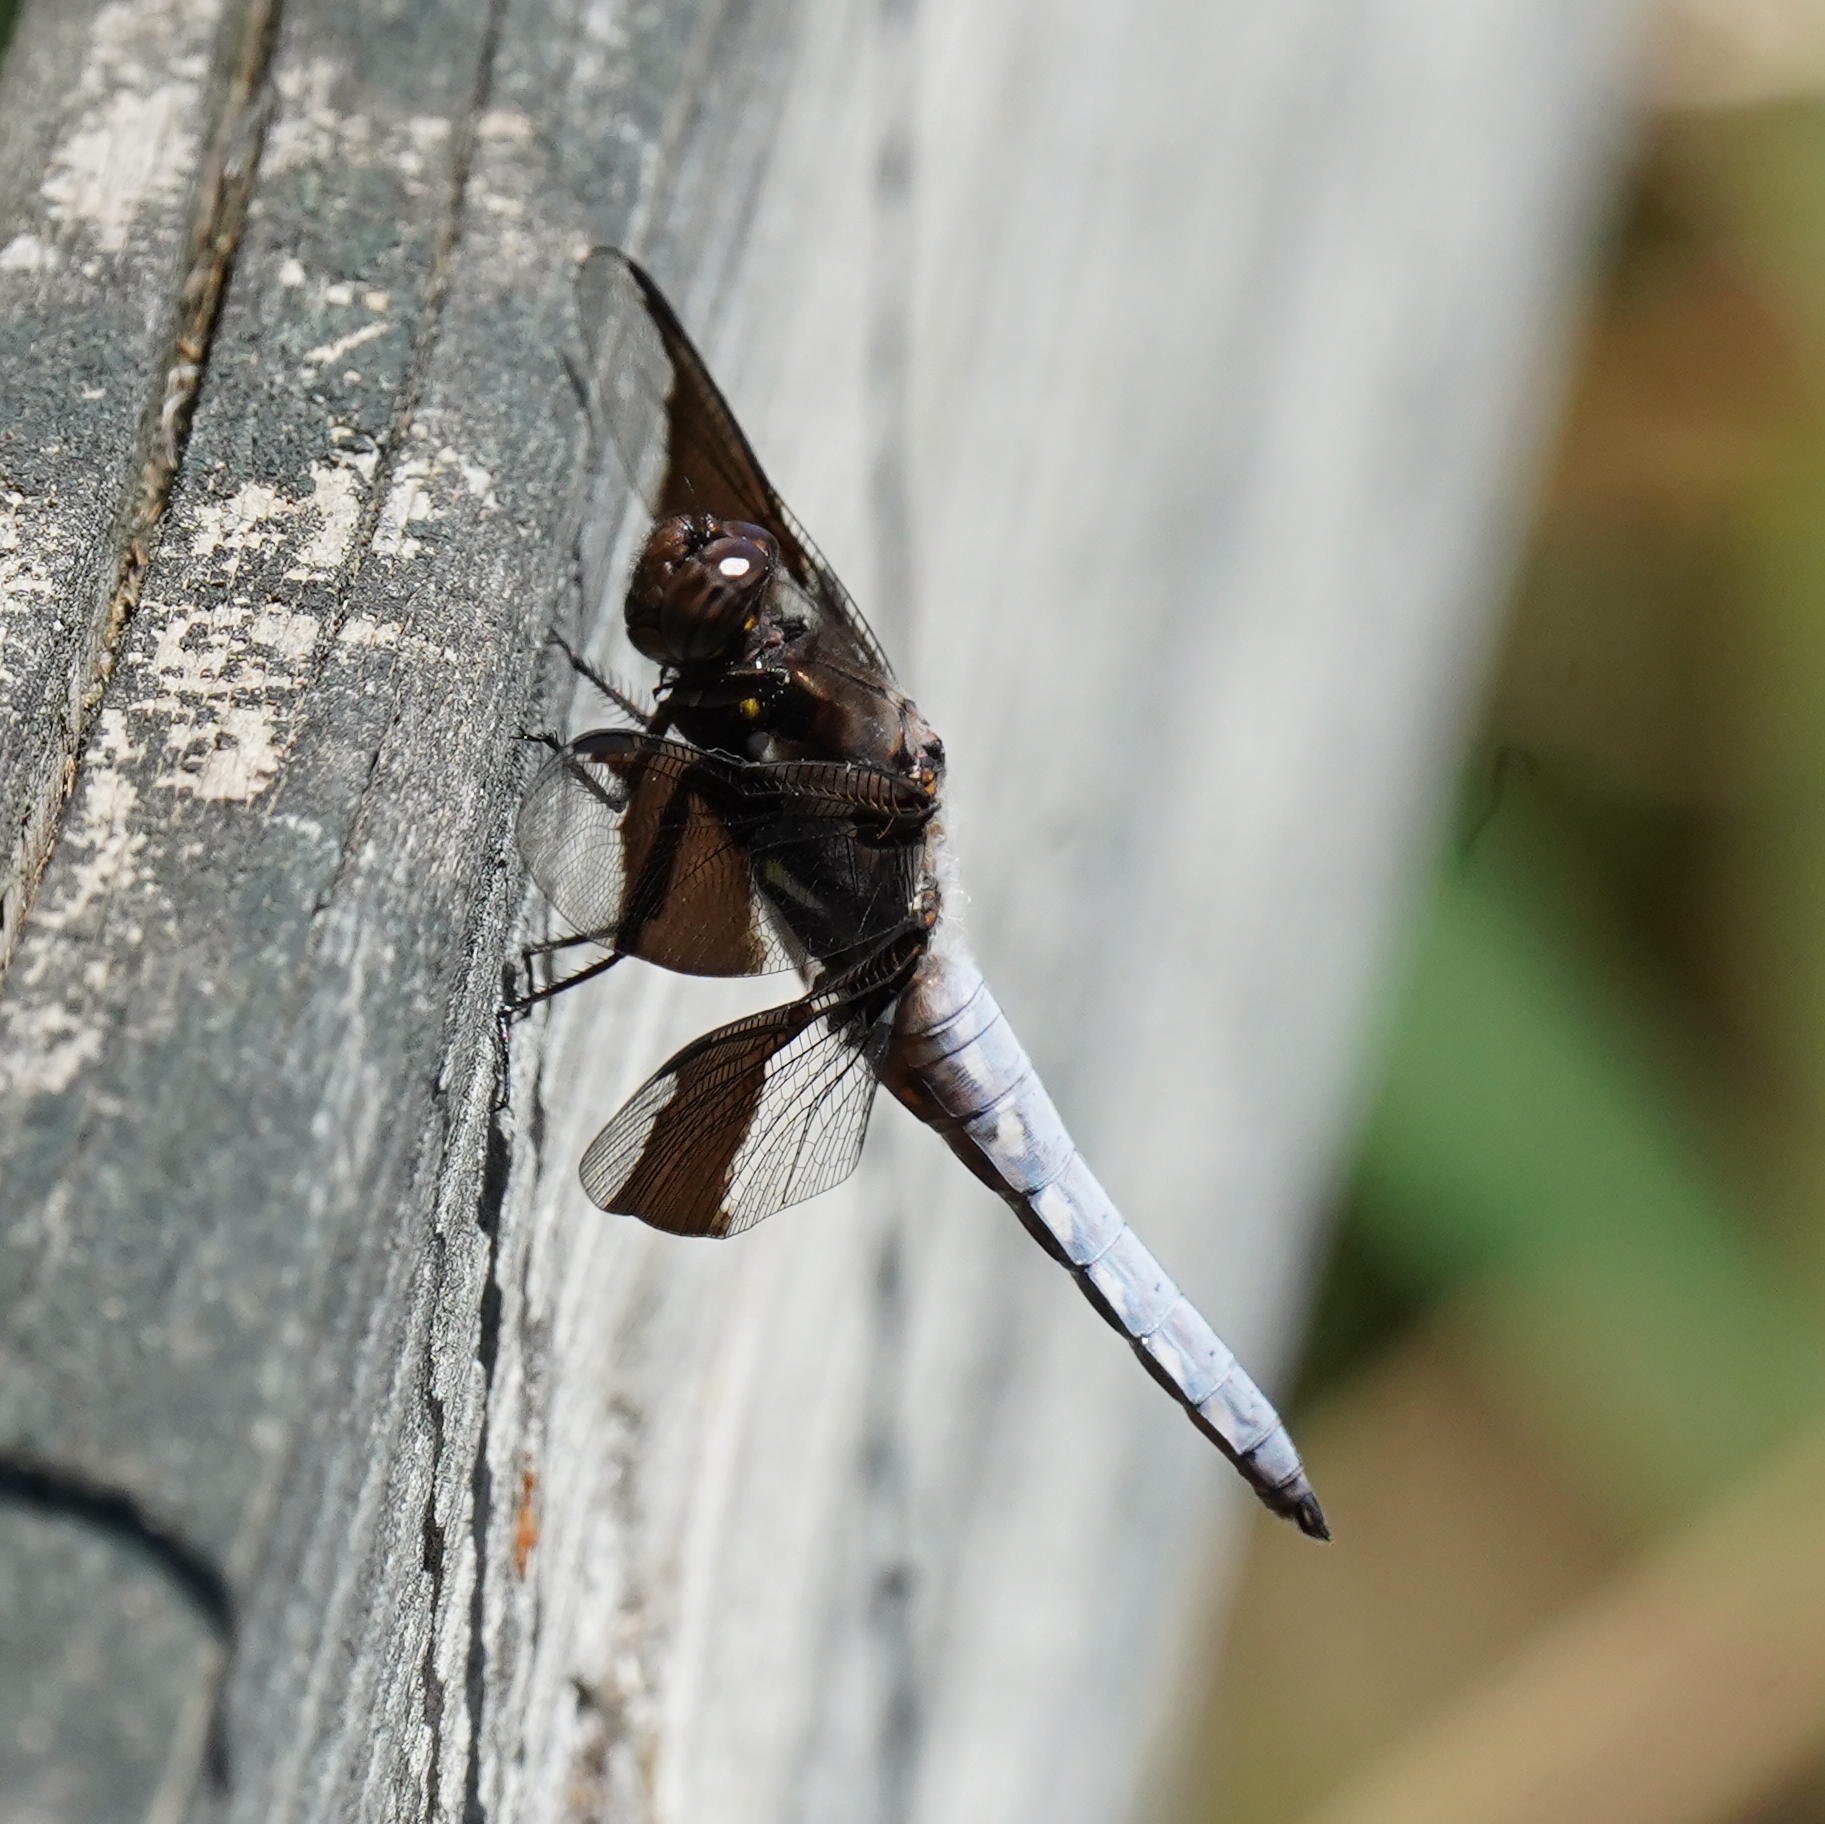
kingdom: Animalia
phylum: Arthropoda
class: Insecta
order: Odonata
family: Libellulidae
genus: Plathemis
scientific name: Plathemis lydia
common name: Common whitetail
